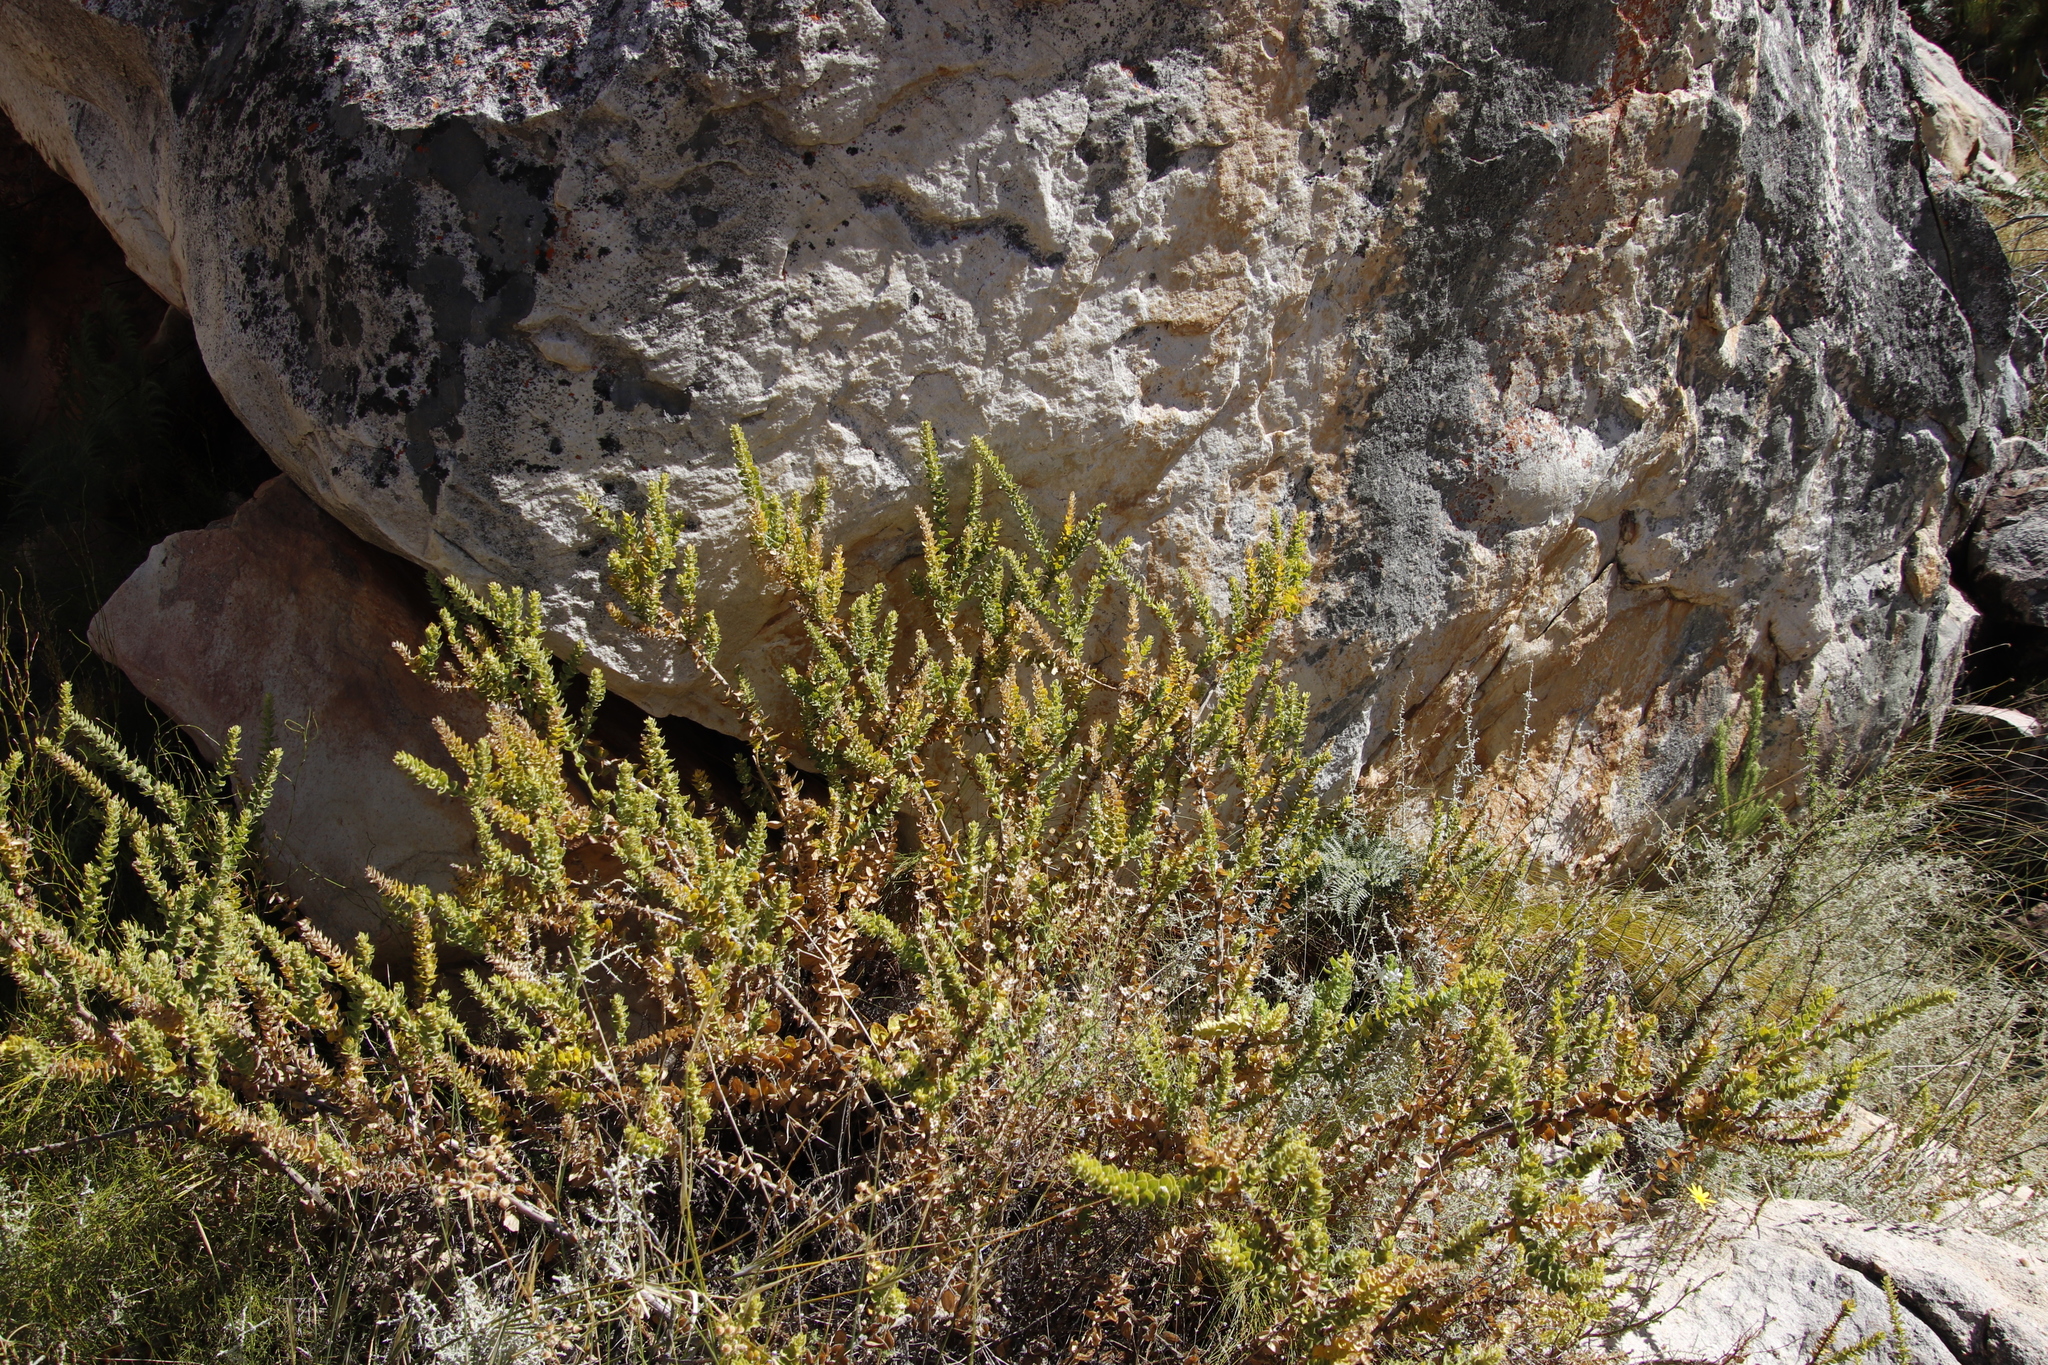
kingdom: Plantae
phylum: Tracheophyta
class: Magnoliopsida
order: Lamiales
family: Scrophulariaceae
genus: Oftia
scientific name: Oftia africana
